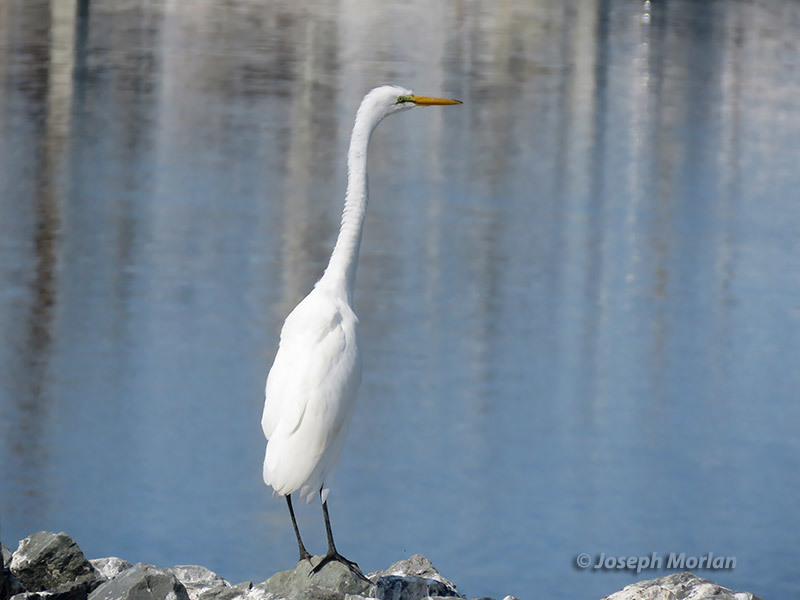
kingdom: Animalia
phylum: Chordata
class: Aves
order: Pelecaniformes
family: Ardeidae
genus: Ardea
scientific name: Ardea alba
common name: Great egret
